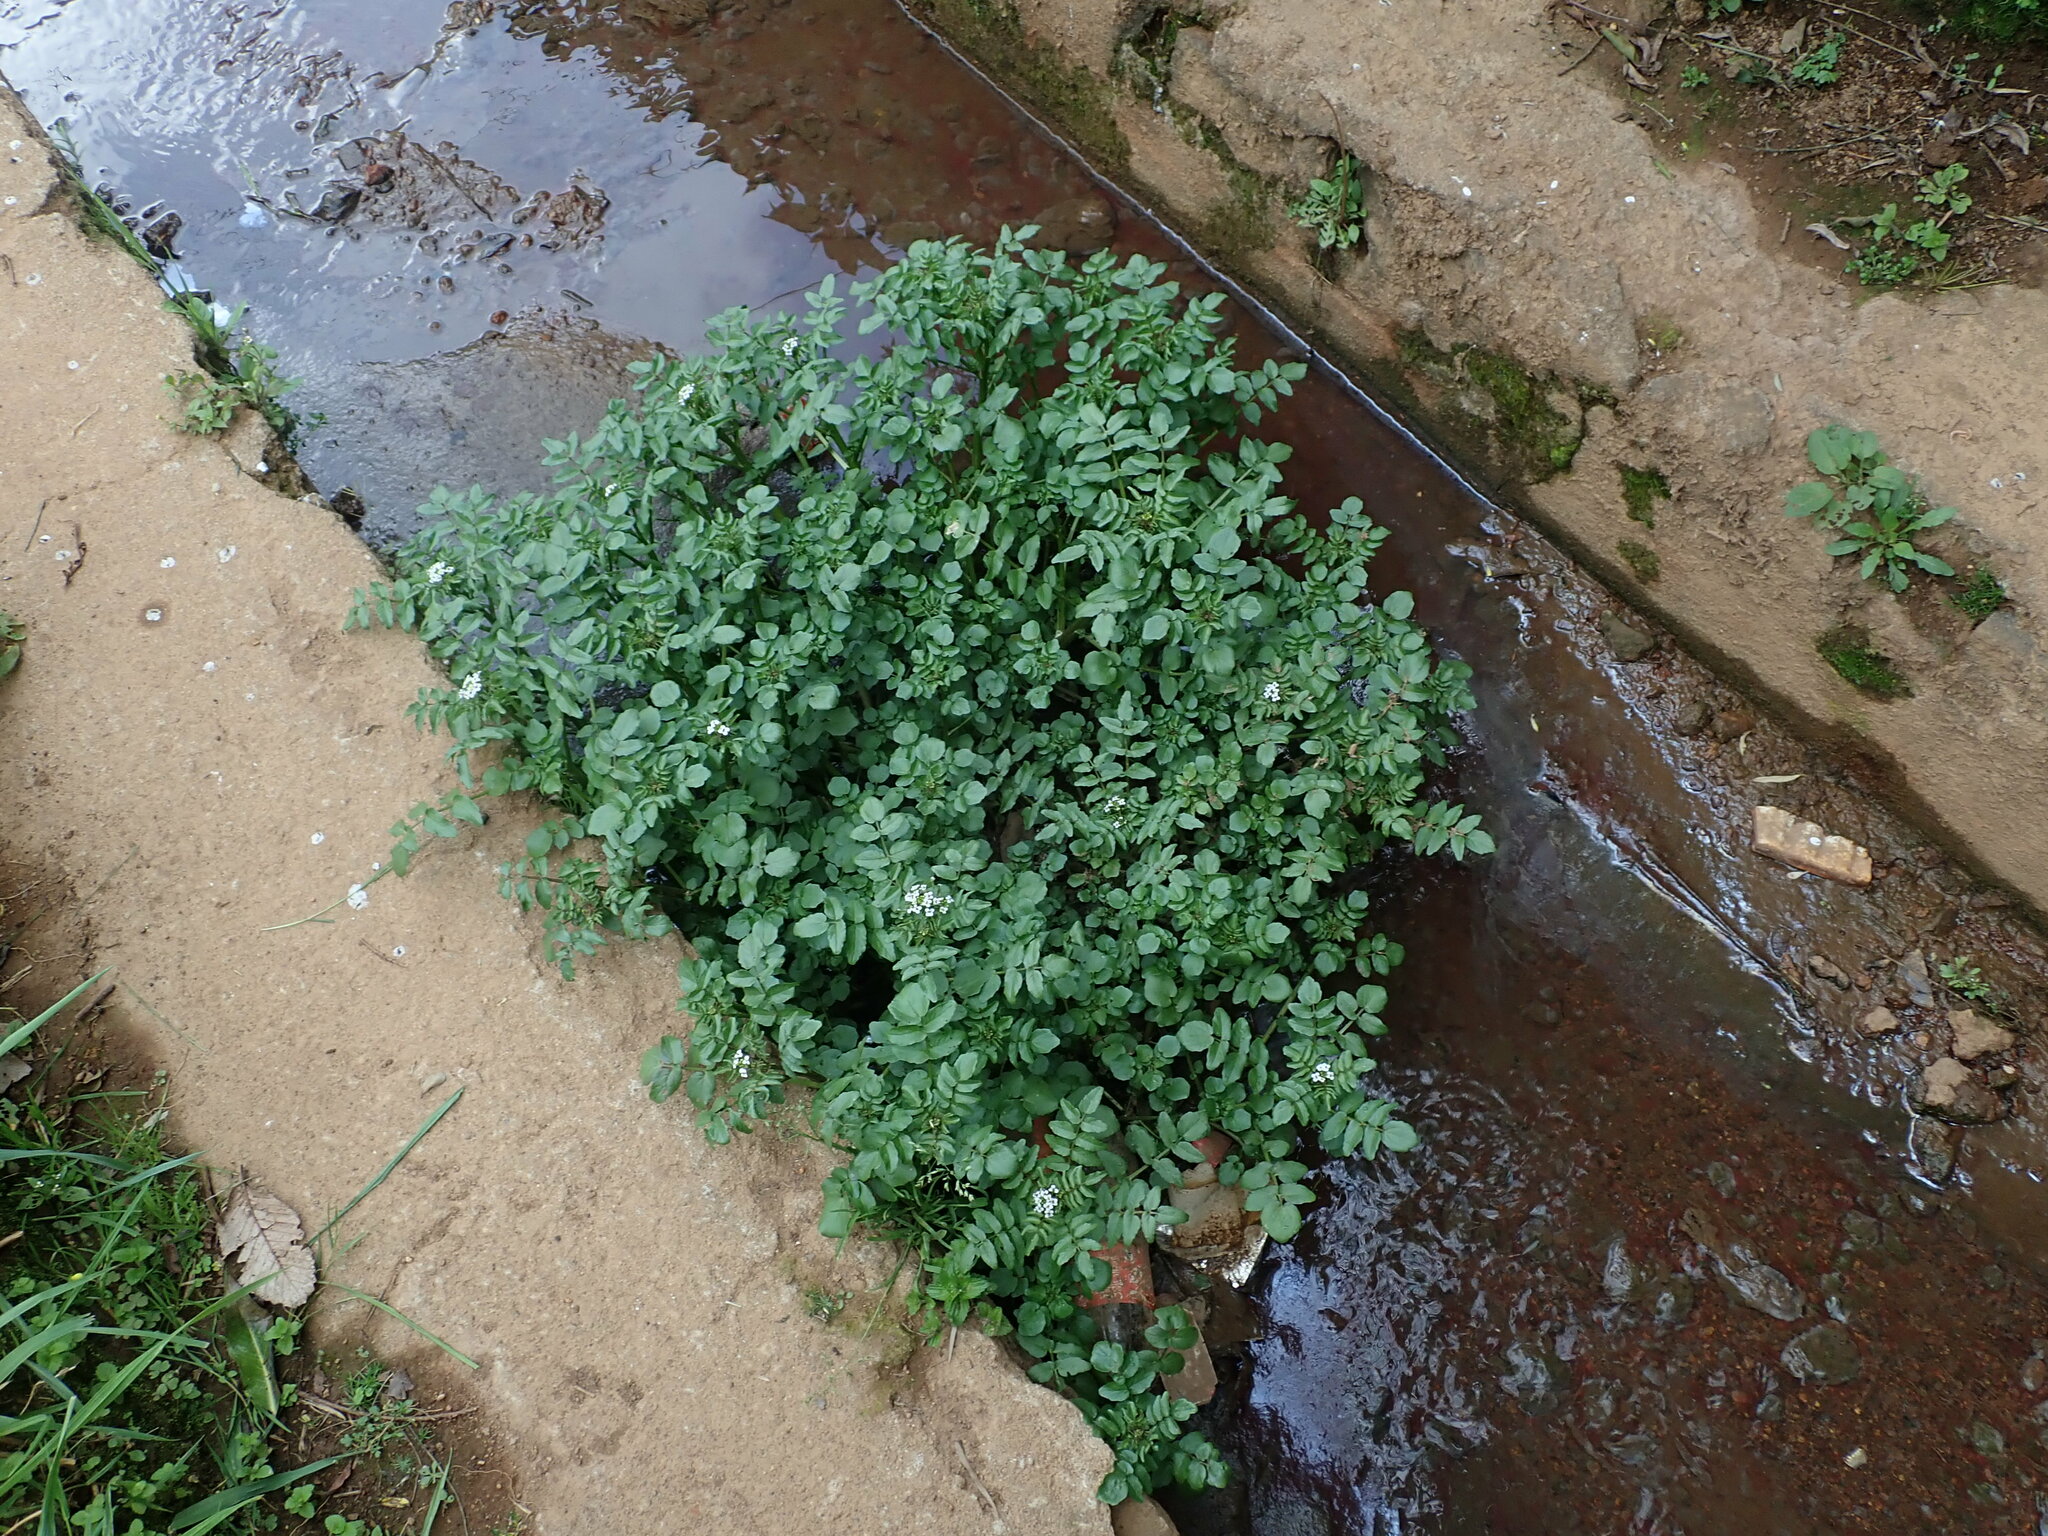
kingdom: Plantae
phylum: Tracheophyta
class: Magnoliopsida
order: Brassicales
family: Brassicaceae
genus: Nasturtium
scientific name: Nasturtium officinale
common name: Watercress
